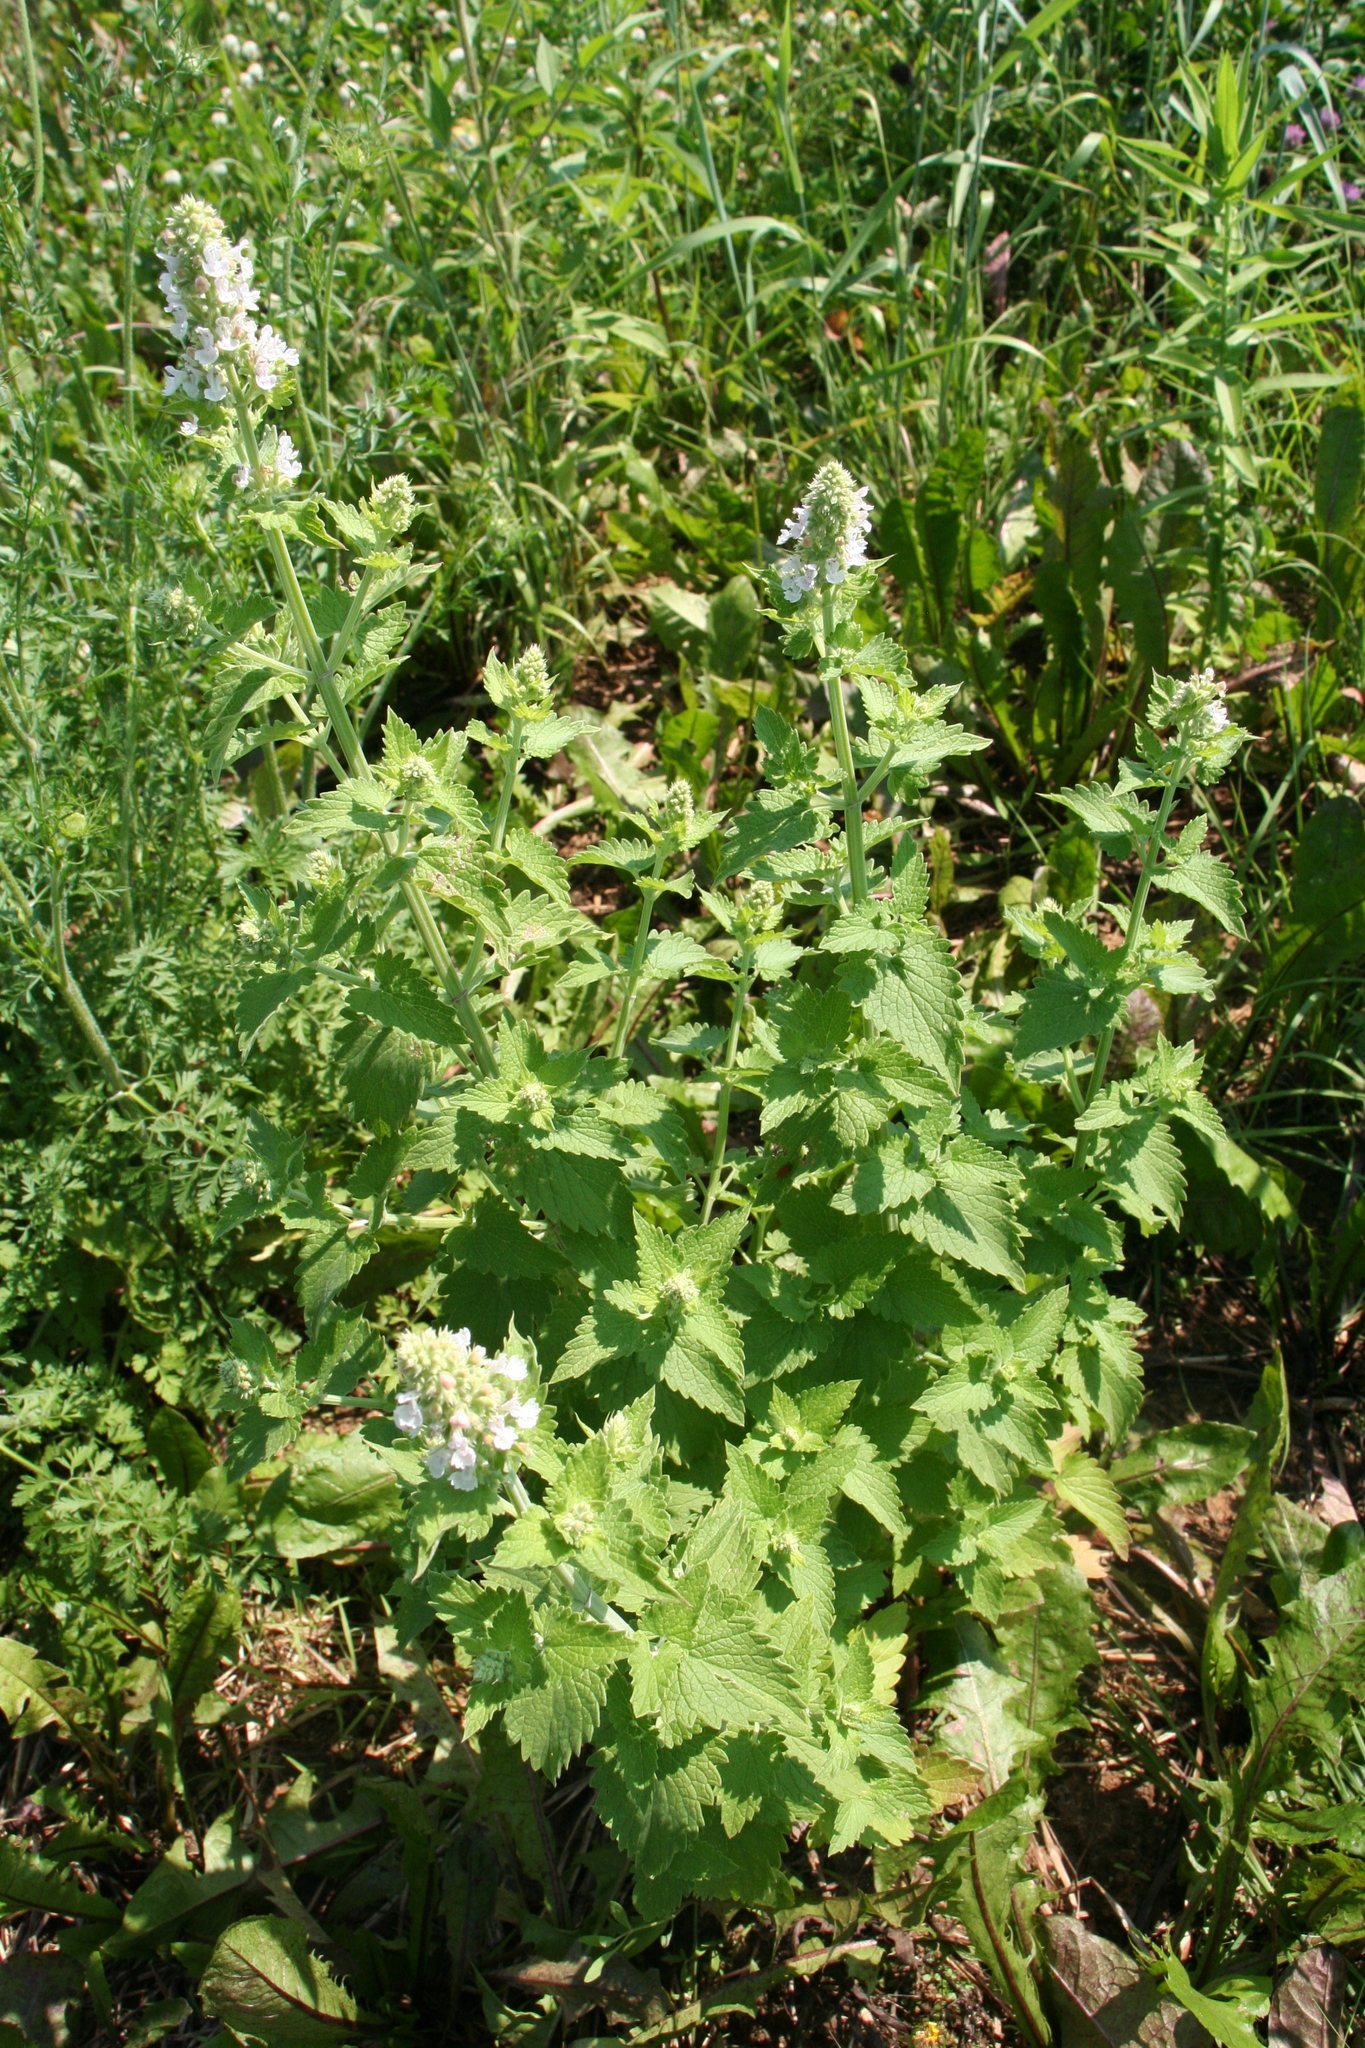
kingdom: Plantae
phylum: Tracheophyta
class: Magnoliopsida
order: Lamiales
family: Lamiaceae
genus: Nepeta
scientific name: Nepeta cataria
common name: Catnip
